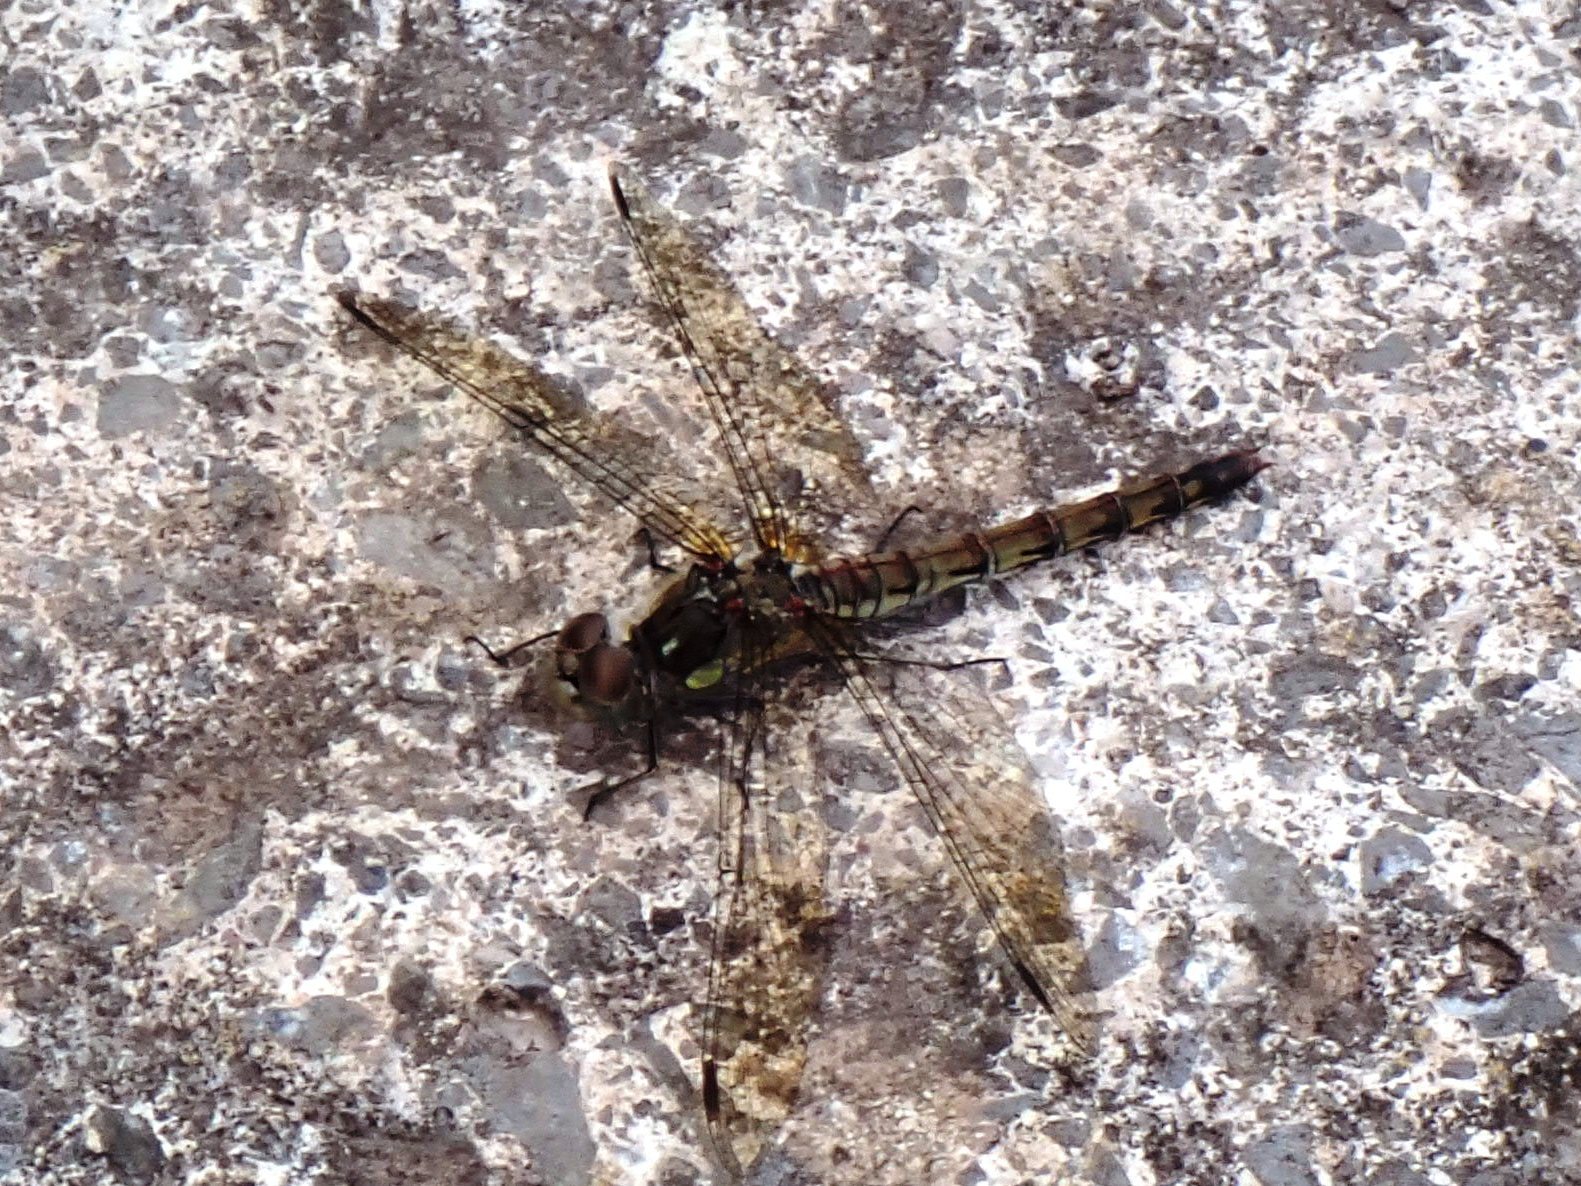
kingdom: Animalia
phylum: Arthropoda
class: Insecta
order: Odonata
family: Libellulidae
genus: Sympetrum
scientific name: Sympetrum striolatum
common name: Common darter
